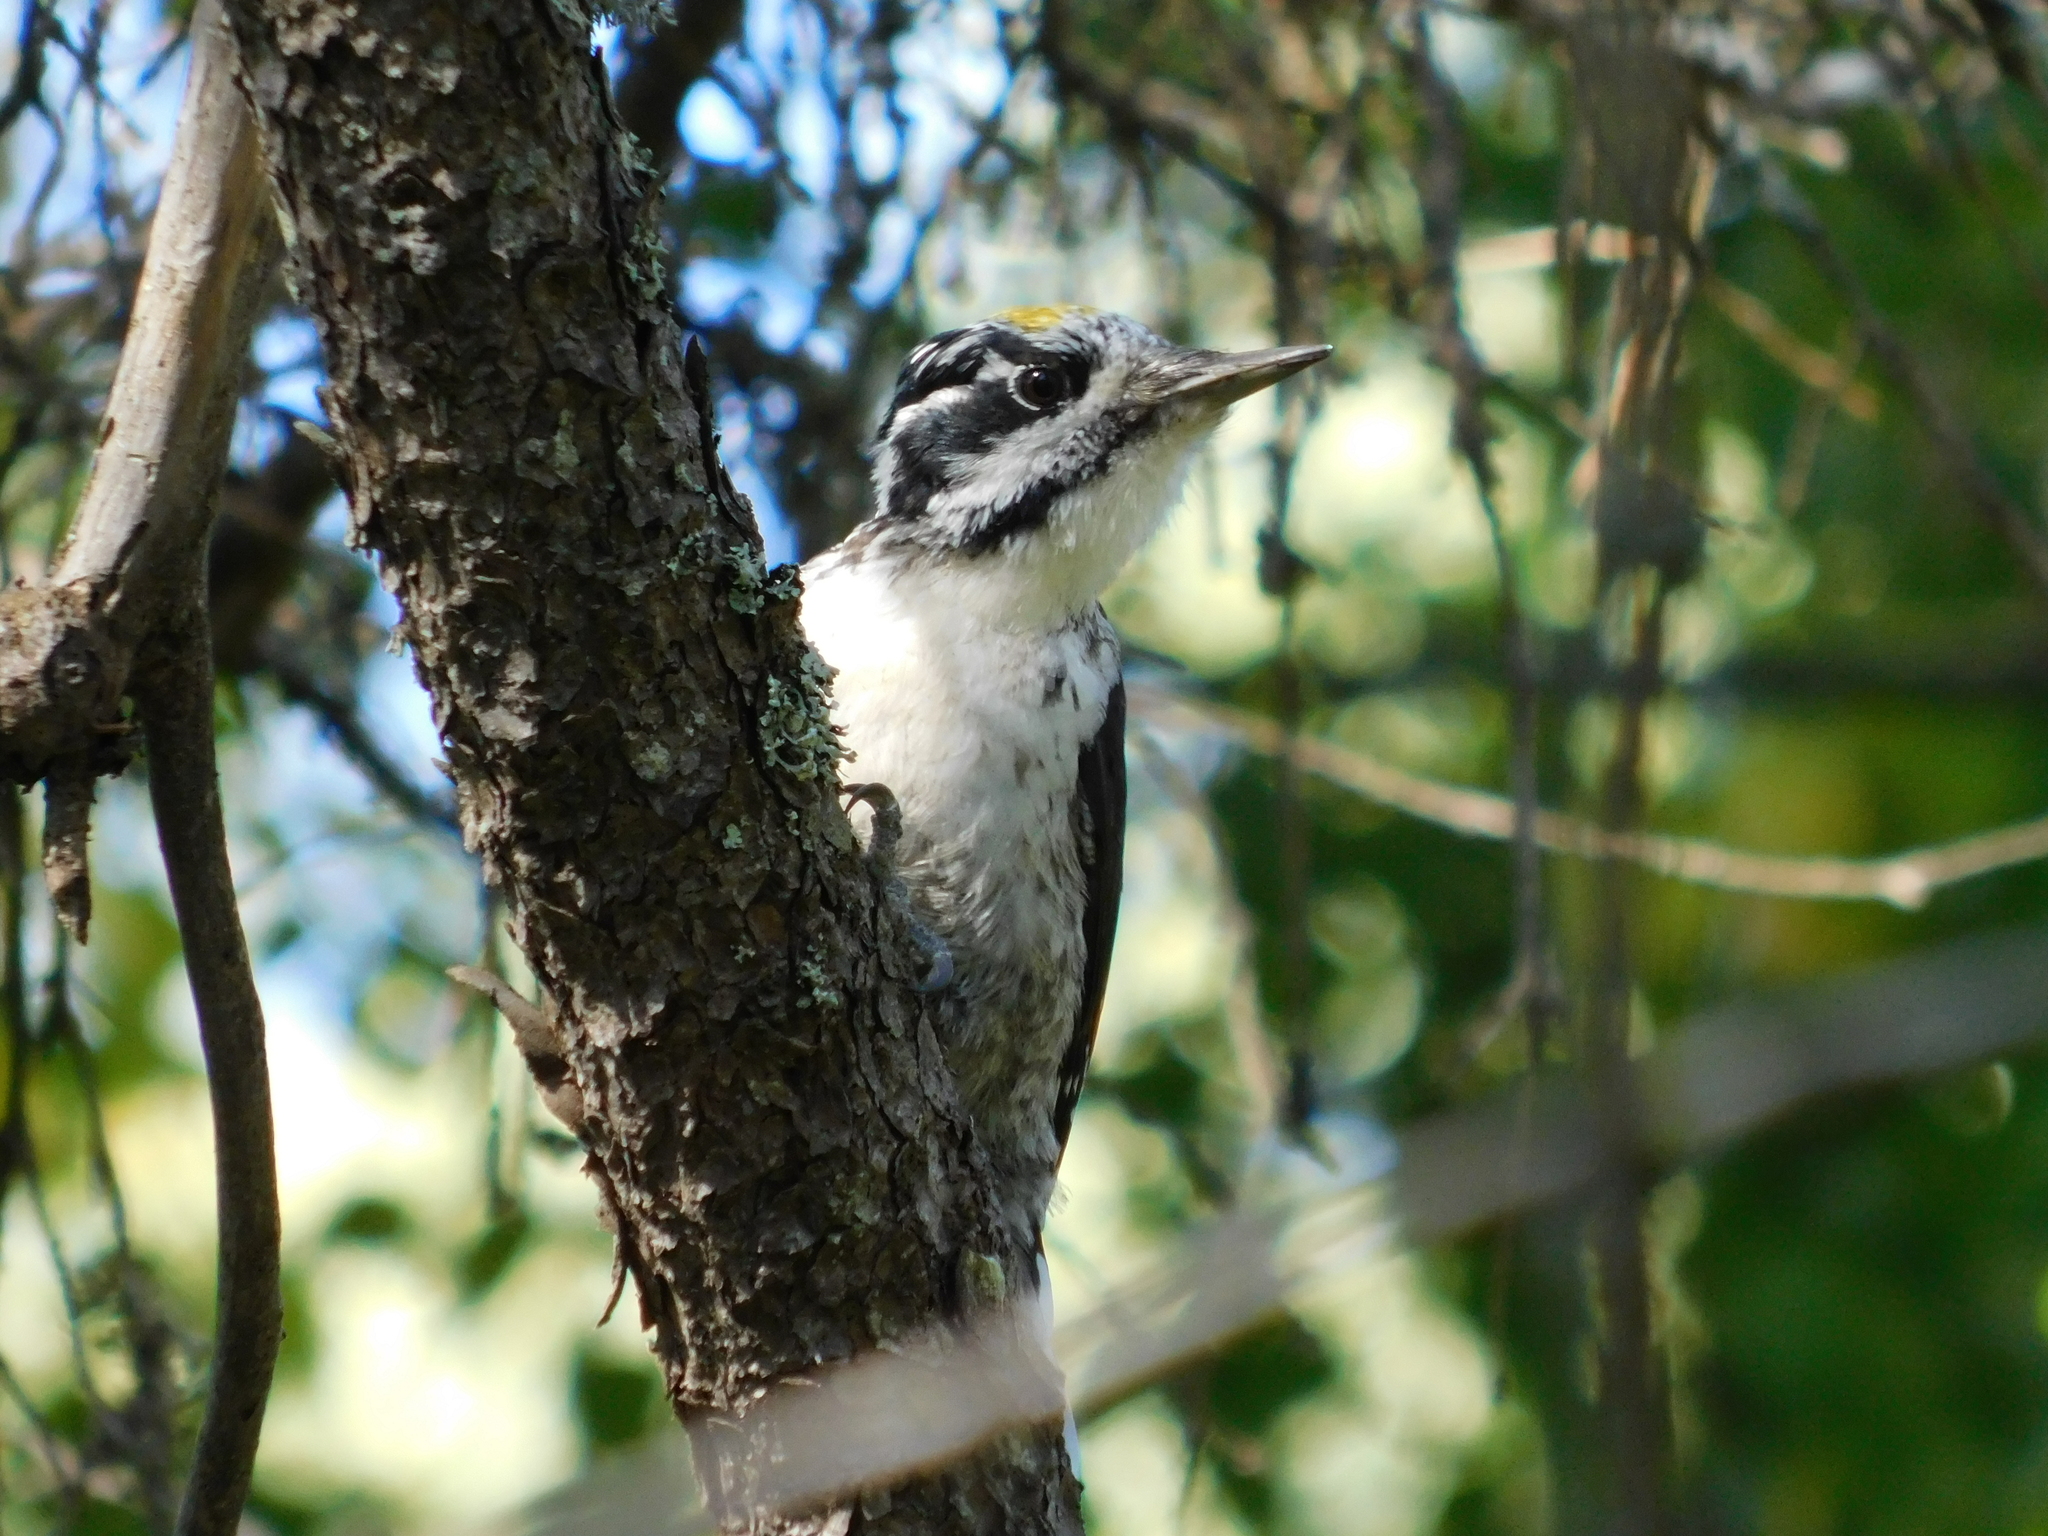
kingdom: Animalia
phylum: Chordata
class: Aves
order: Piciformes
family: Picidae
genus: Picoides
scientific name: Picoides tridactylus
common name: Eurasian three-toed woodpecker
